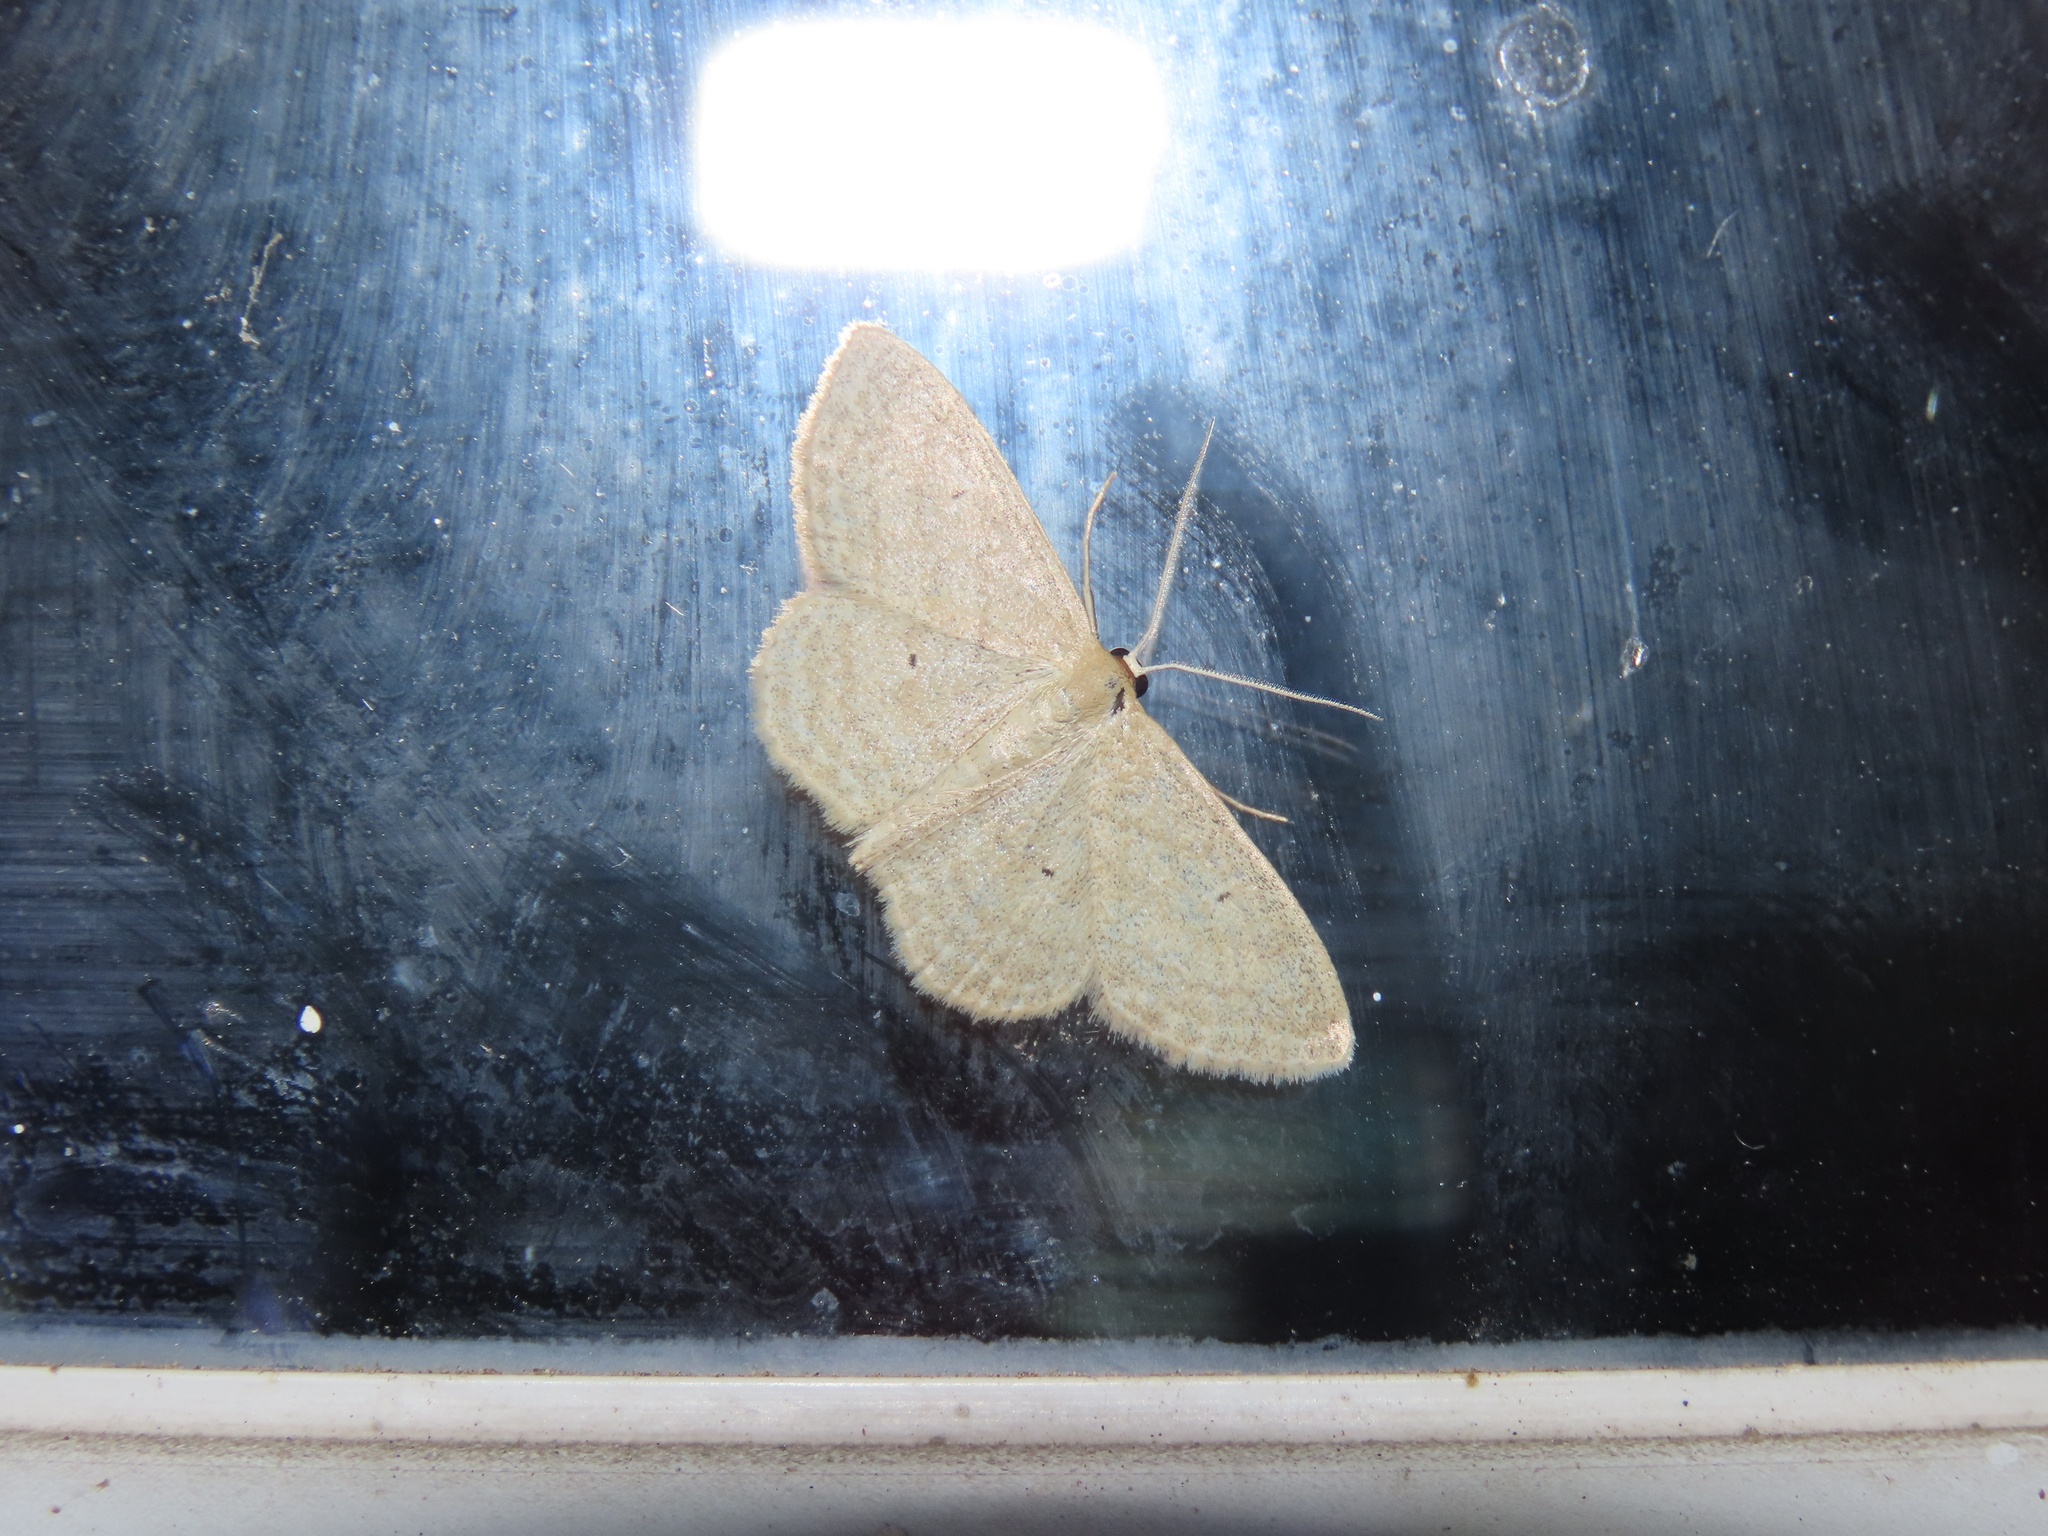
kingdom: Animalia
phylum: Arthropoda
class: Insecta
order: Lepidoptera
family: Geometridae
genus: Scopula
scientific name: Scopula inductata
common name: Soft-lined wave
